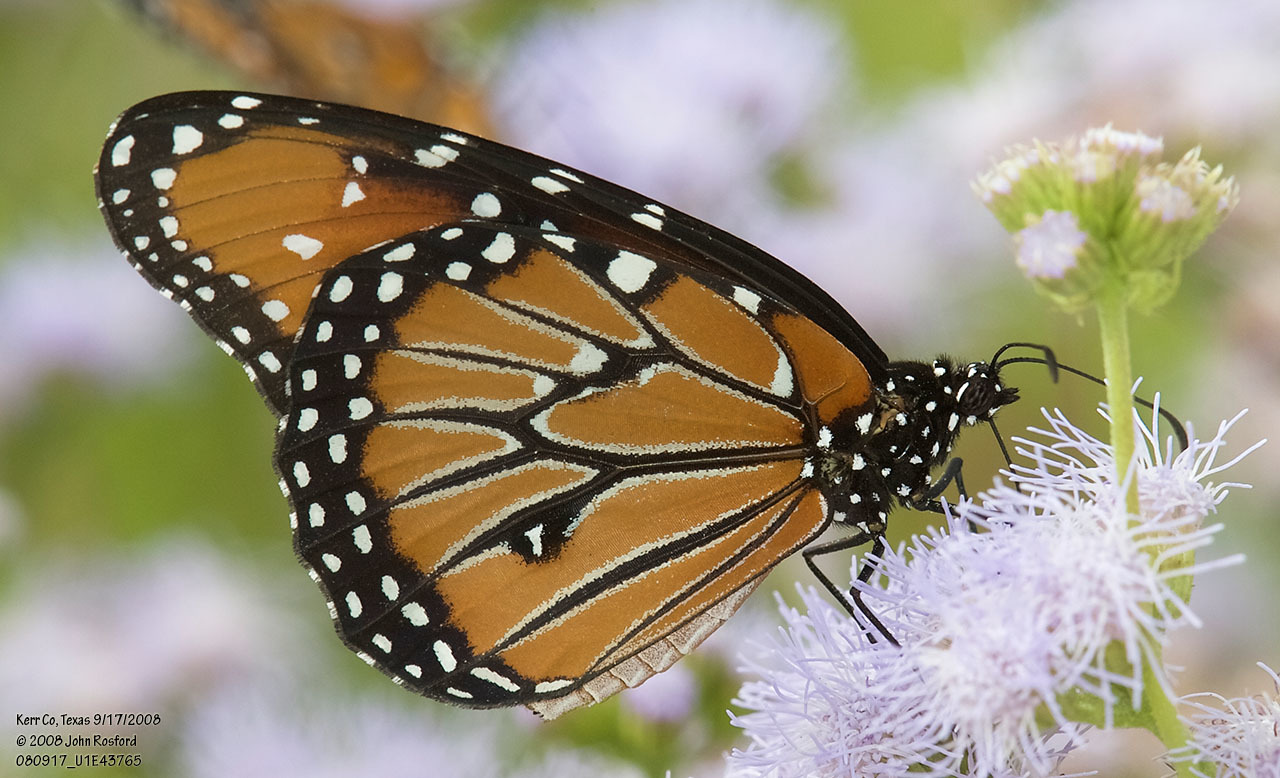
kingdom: Animalia
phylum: Arthropoda
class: Insecta
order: Lepidoptera
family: Nymphalidae
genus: Danaus
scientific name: Danaus gilippus
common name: Queen
